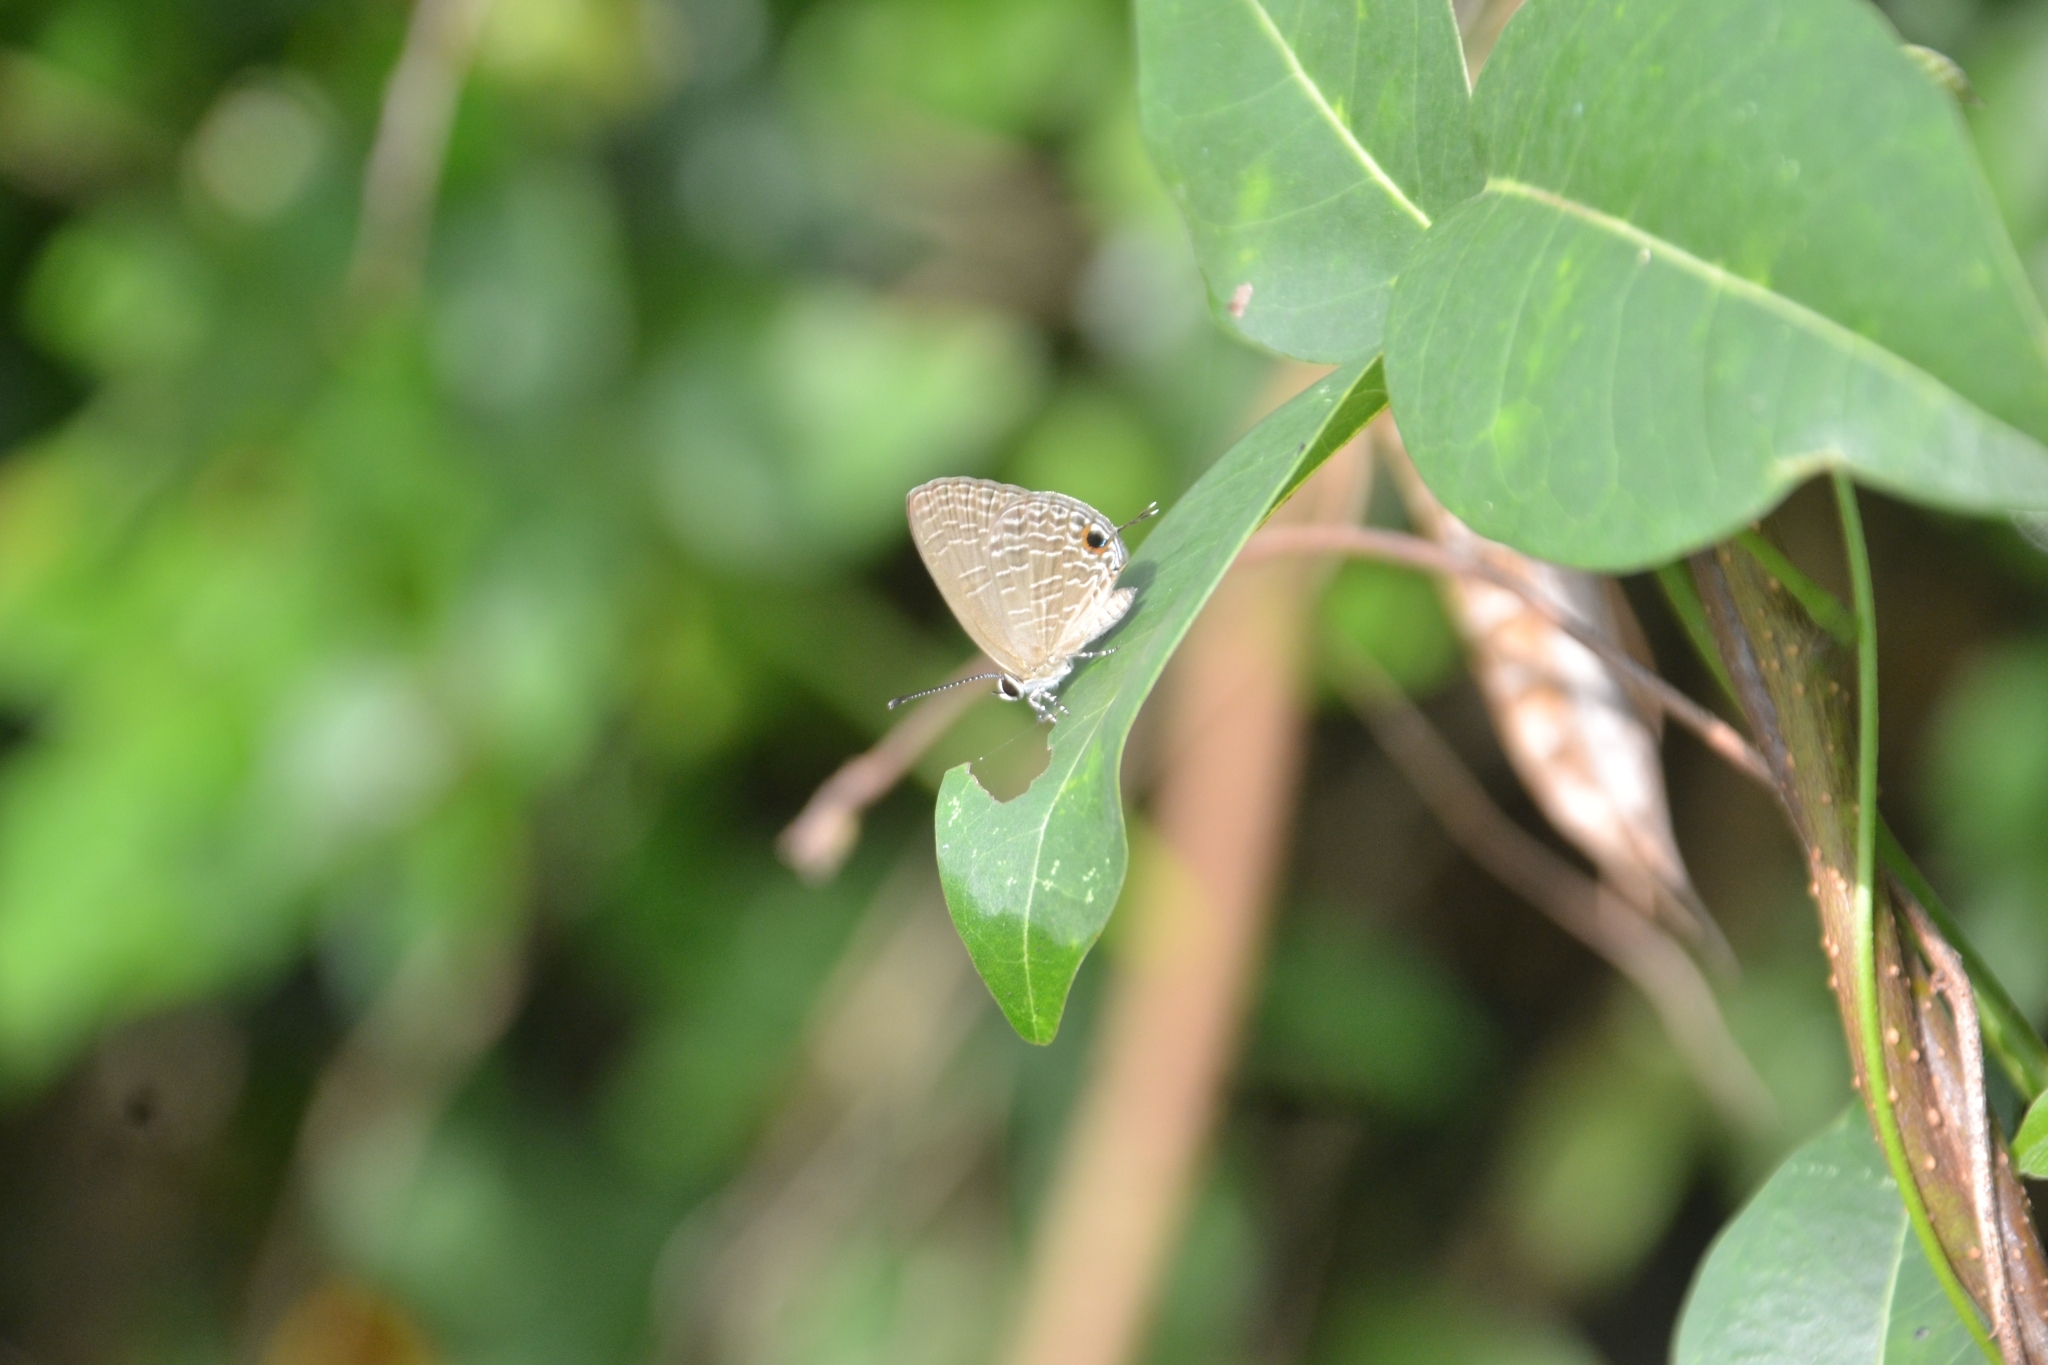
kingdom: Animalia
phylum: Arthropoda
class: Insecta
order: Lepidoptera
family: Lycaenidae
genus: Jamides
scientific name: Jamides bochus
